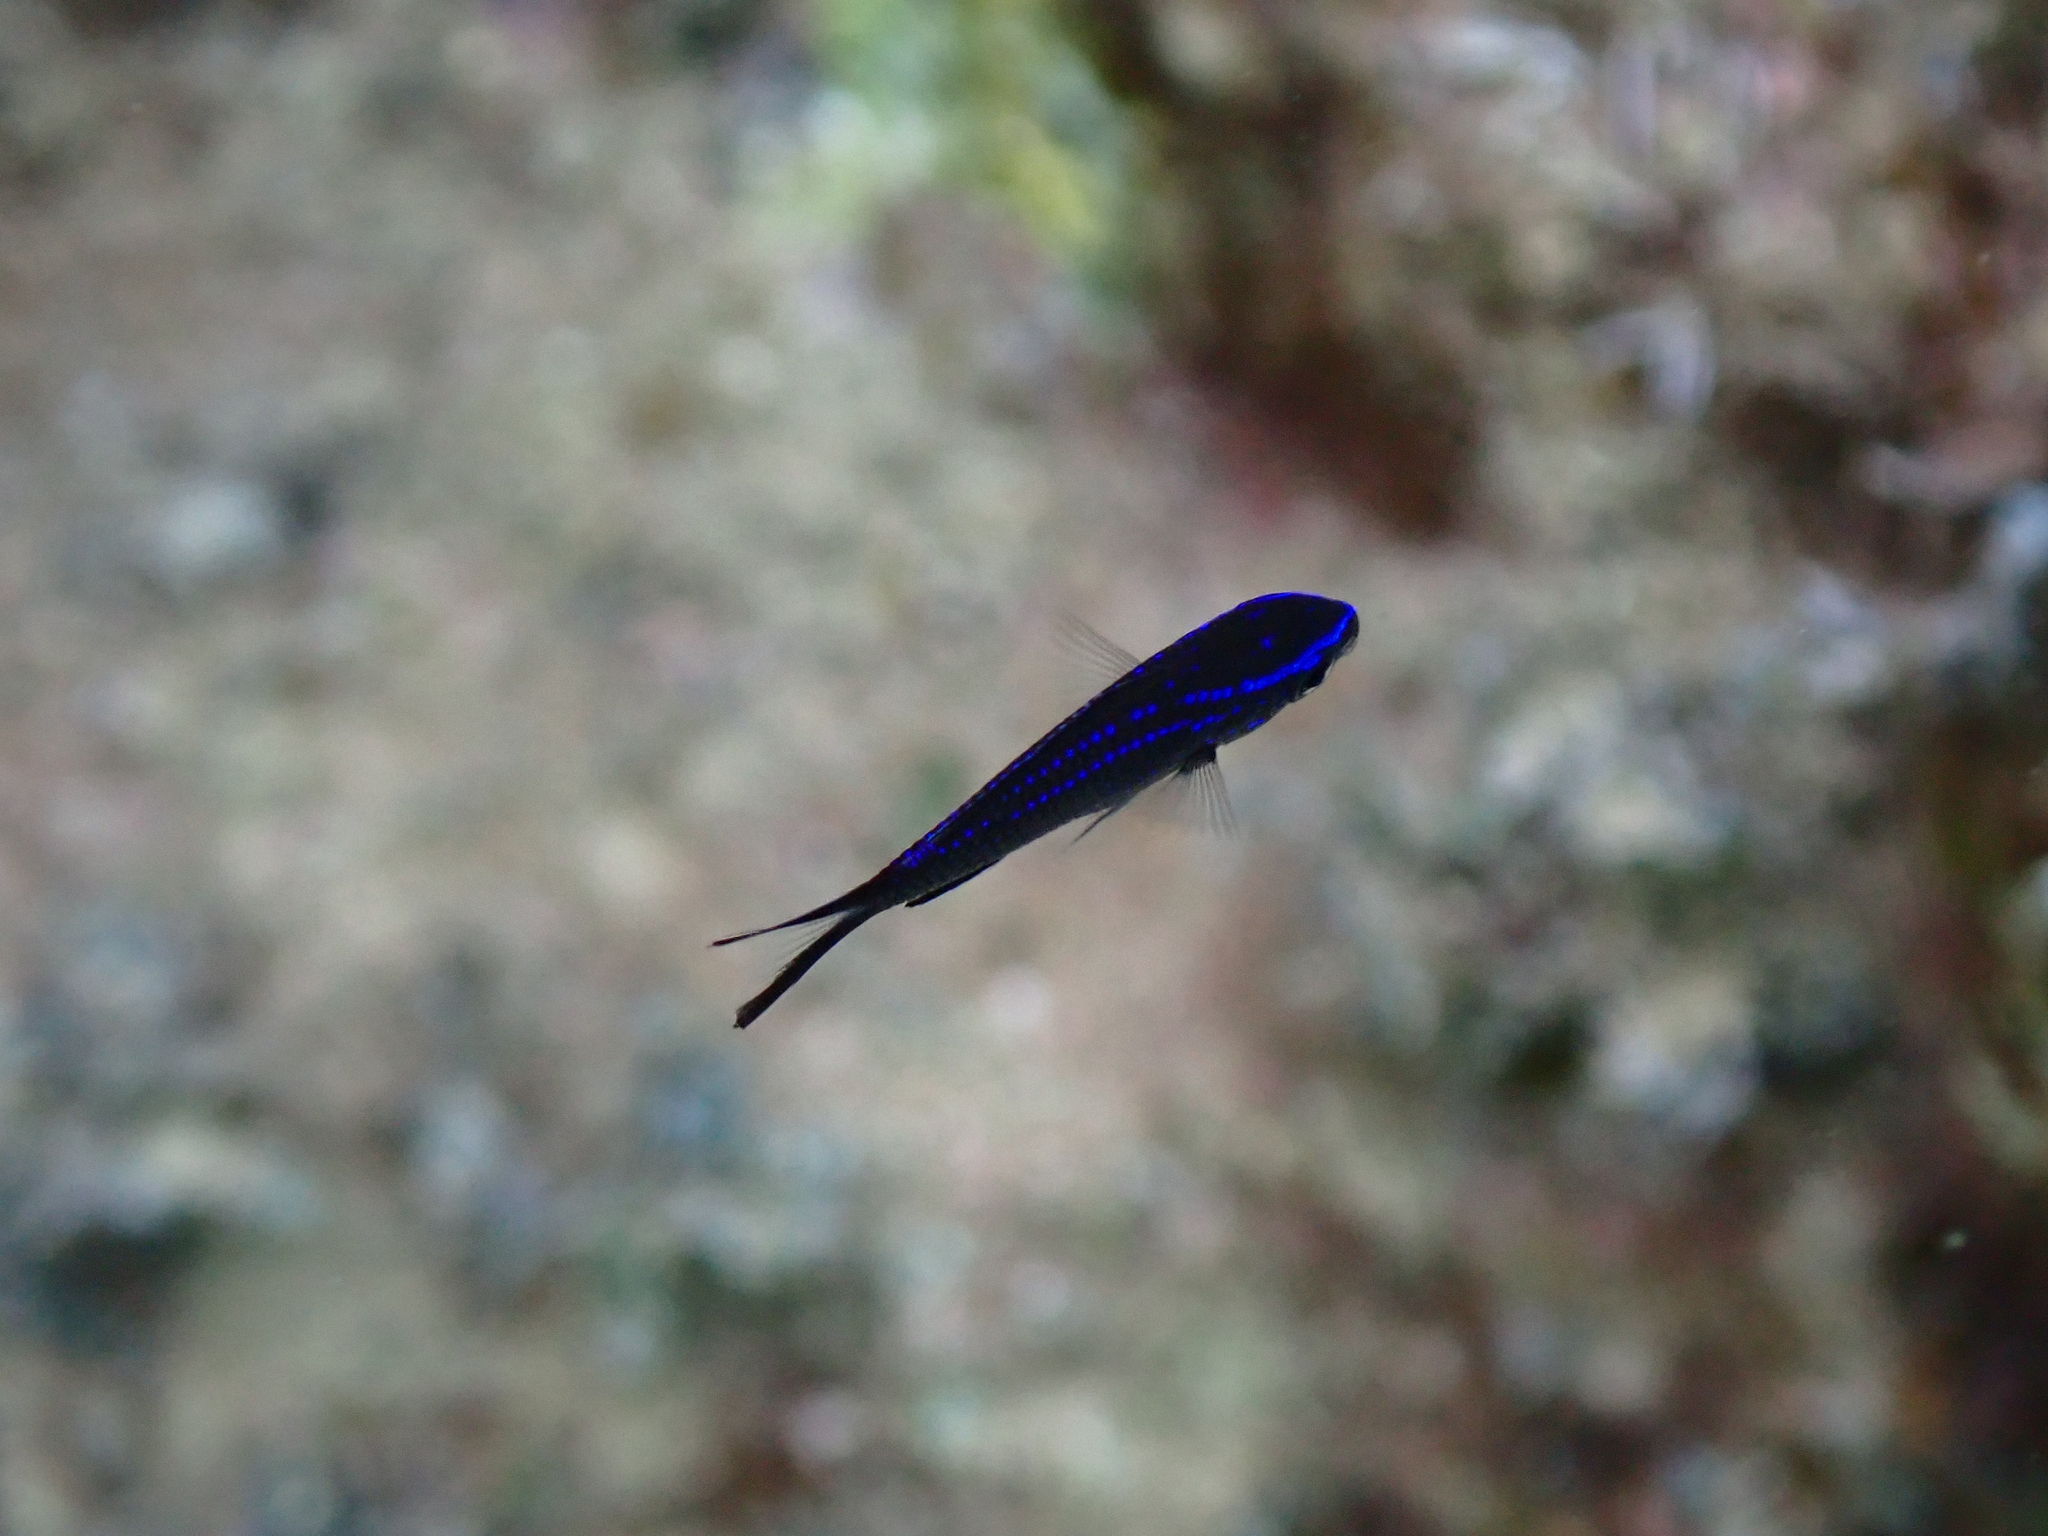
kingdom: Animalia
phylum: Chordata
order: Perciformes
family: Pomacentridae
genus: Chromis
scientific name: Chromis chromis
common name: Damselfish
